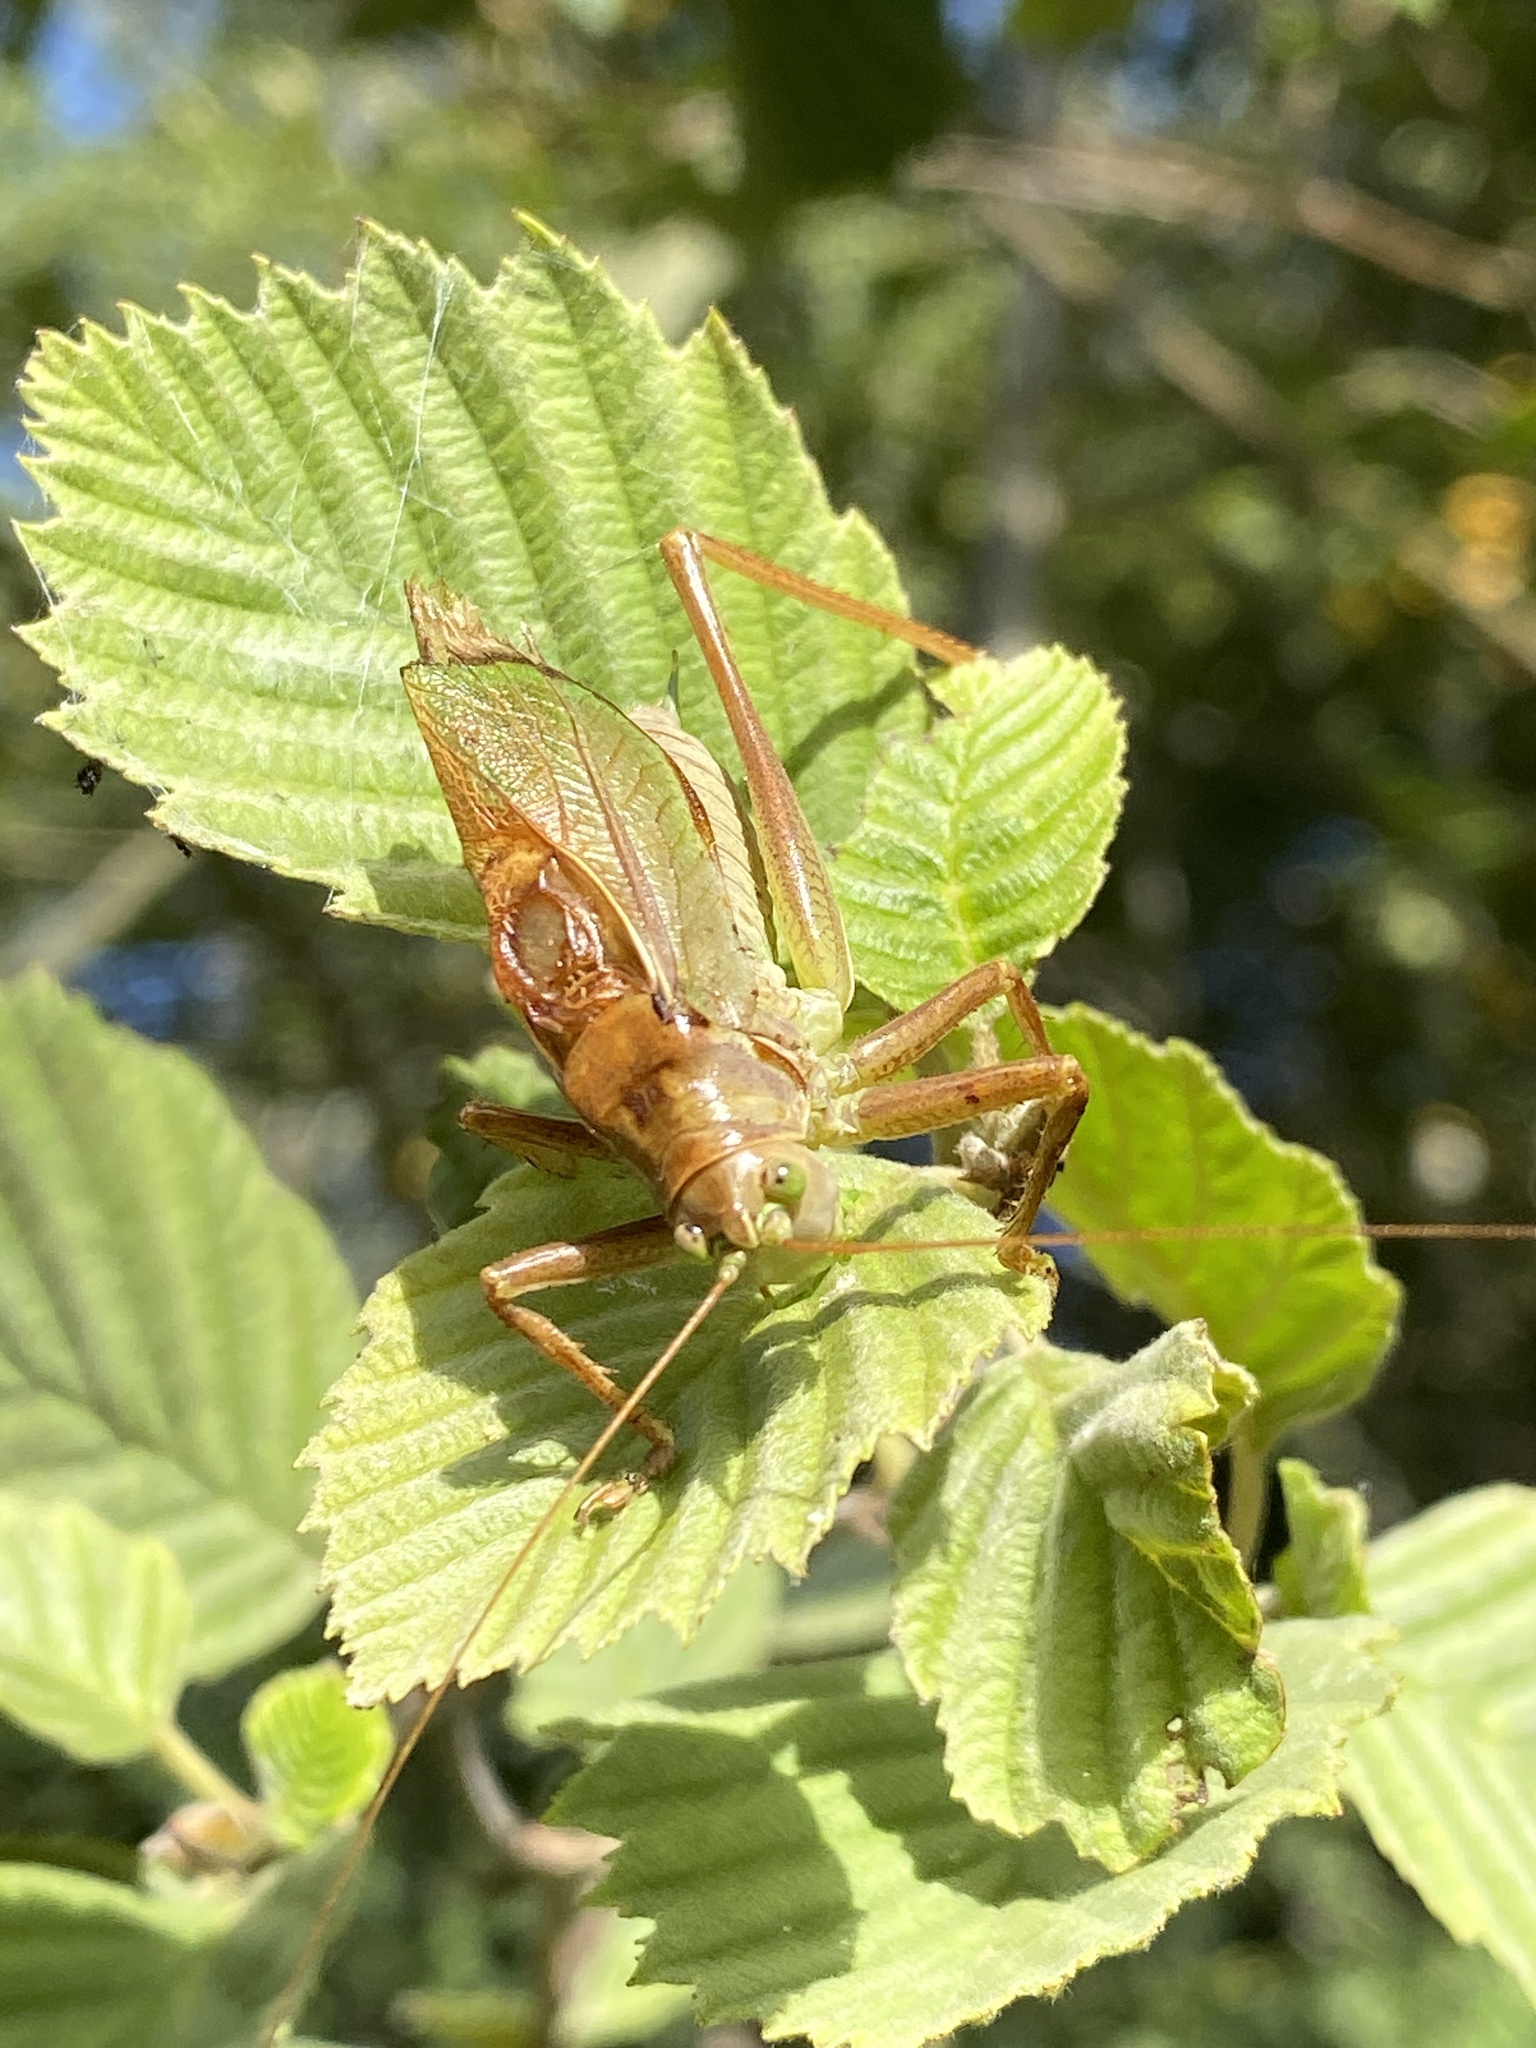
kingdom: Animalia
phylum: Arthropoda
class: Insecta
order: Orthoptera
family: Tettigoniidae
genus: Tettigonia
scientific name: Tettigonia cantans
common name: Upland green bush-cricket
